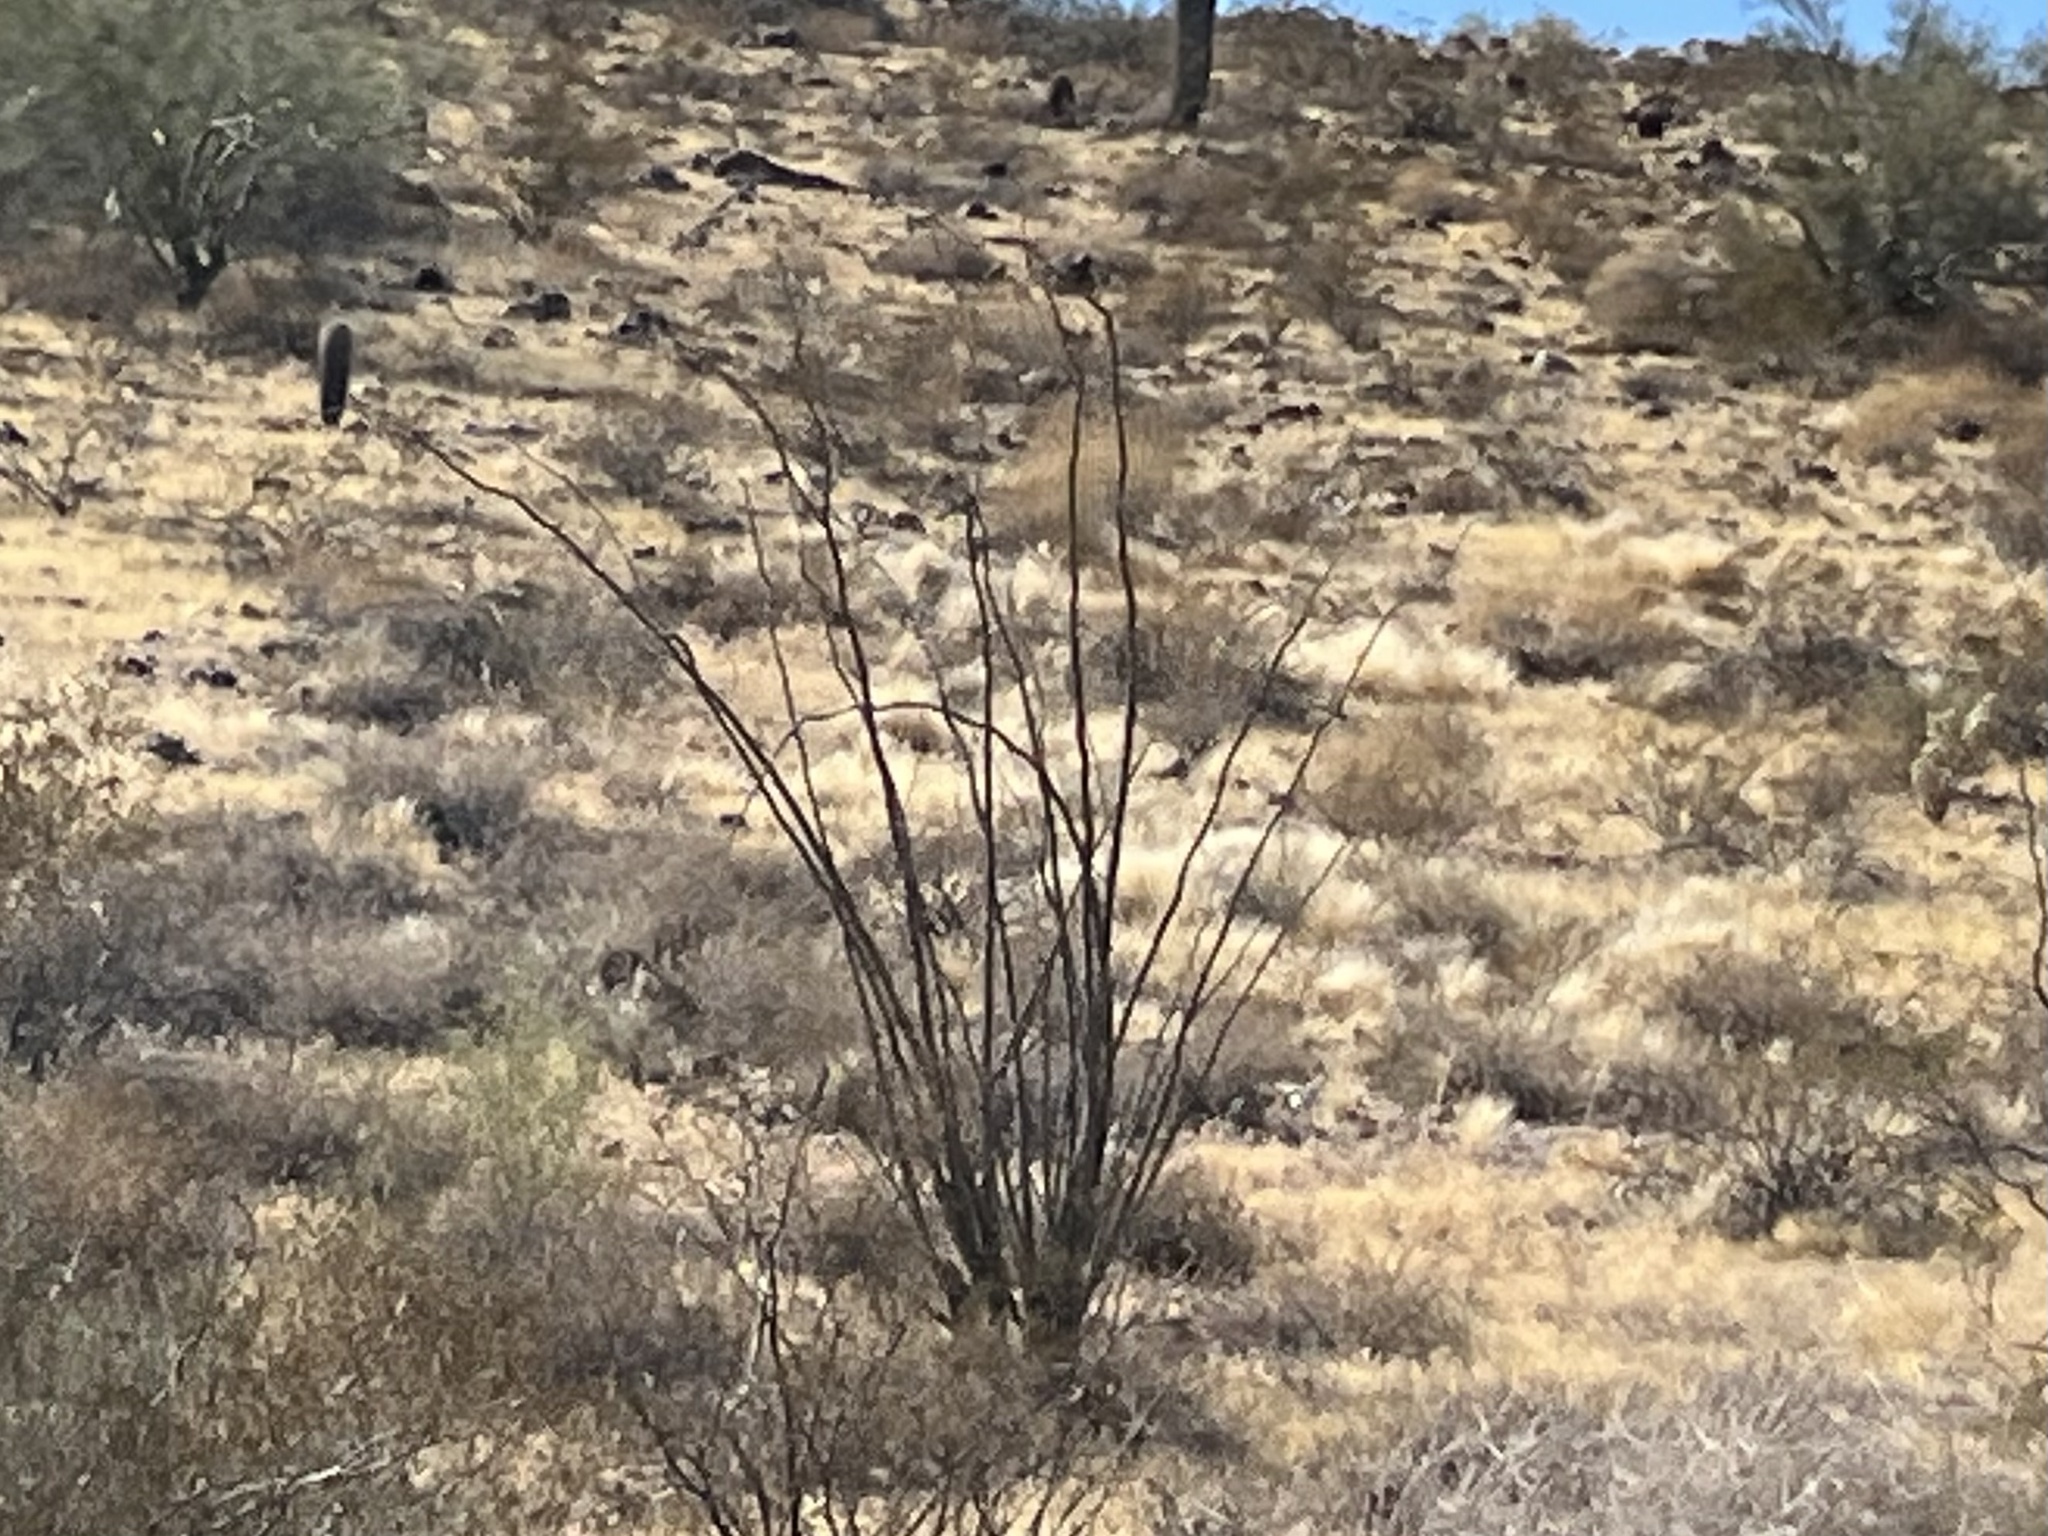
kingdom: Plantae
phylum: Tracheophyta
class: Magnoliopsida
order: Ericales
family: Fouquieriaceae
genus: Fouquieria
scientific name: Fouquieria splendens
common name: Vine-cactus
